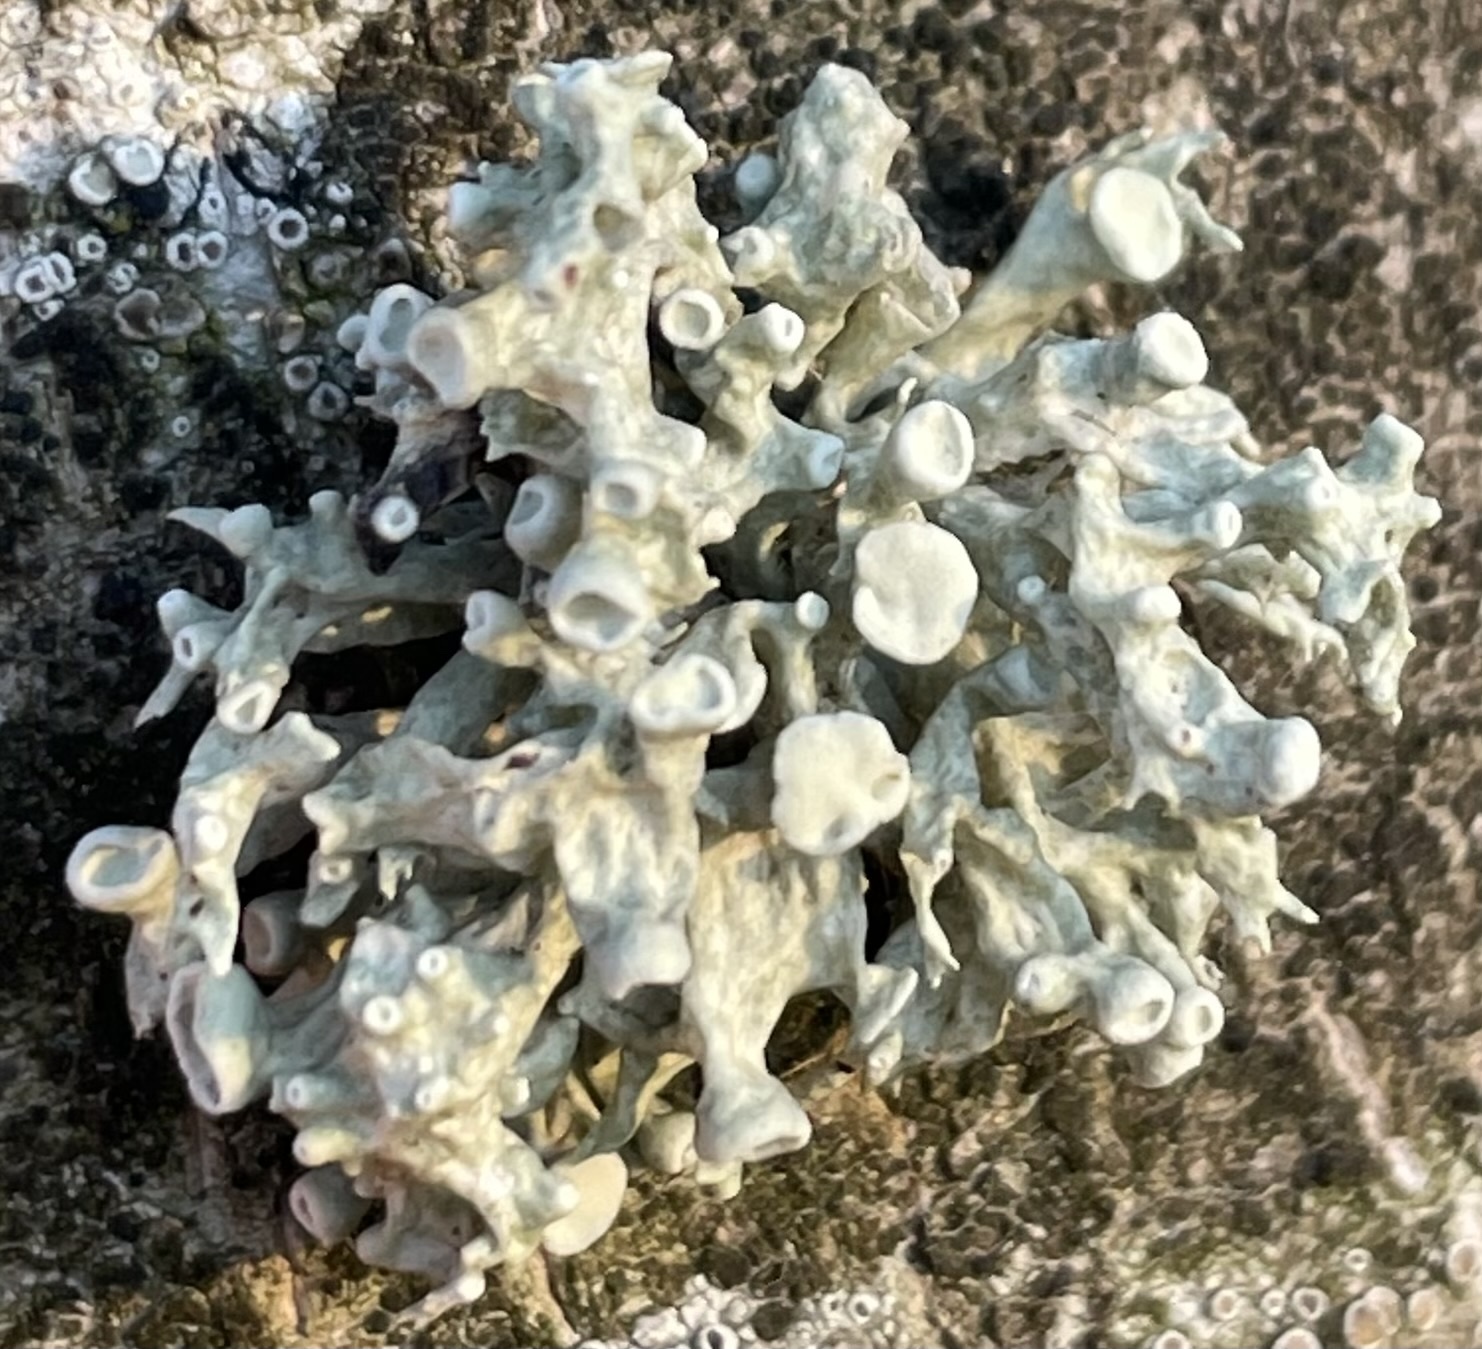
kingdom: Fungi
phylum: Ascomycota
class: Lecanoromycetes
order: Lecanorales
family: Ramalinaceae
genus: Ramalina
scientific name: Ramalina fastigiata
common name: Dotted ribbon lichen
